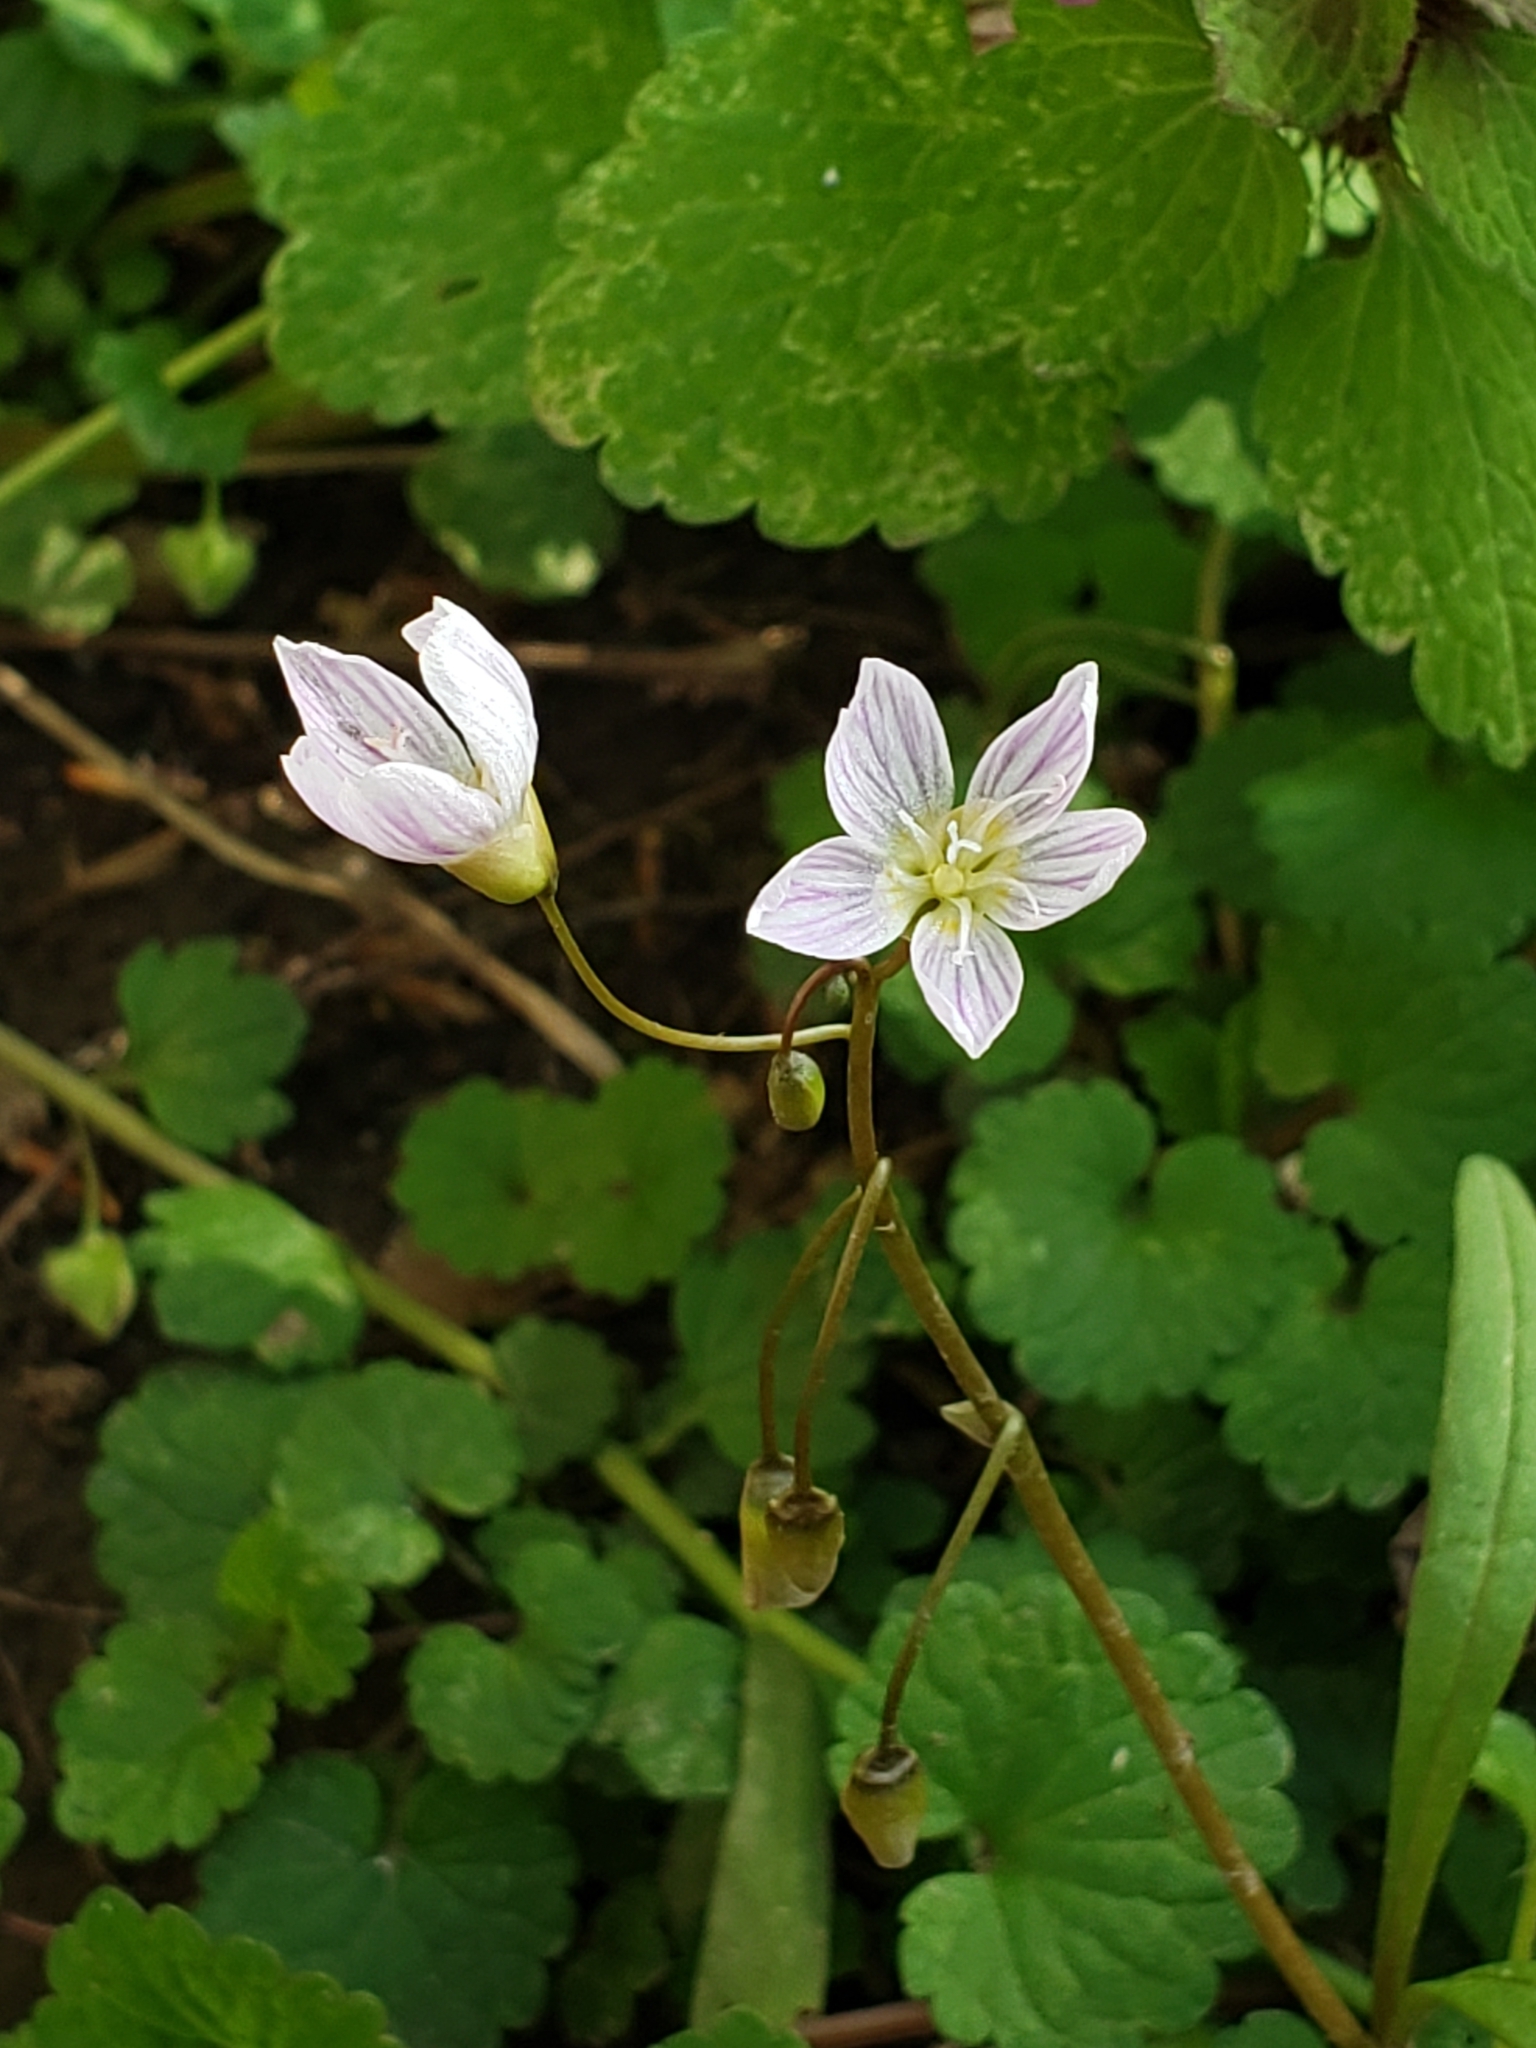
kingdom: Plantae
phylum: Tracheophyta
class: Magnoliopsida
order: Caryophyllales
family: Montiaceae
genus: Claytonia
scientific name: Claytonia virginica
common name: Virginia springbeauty
